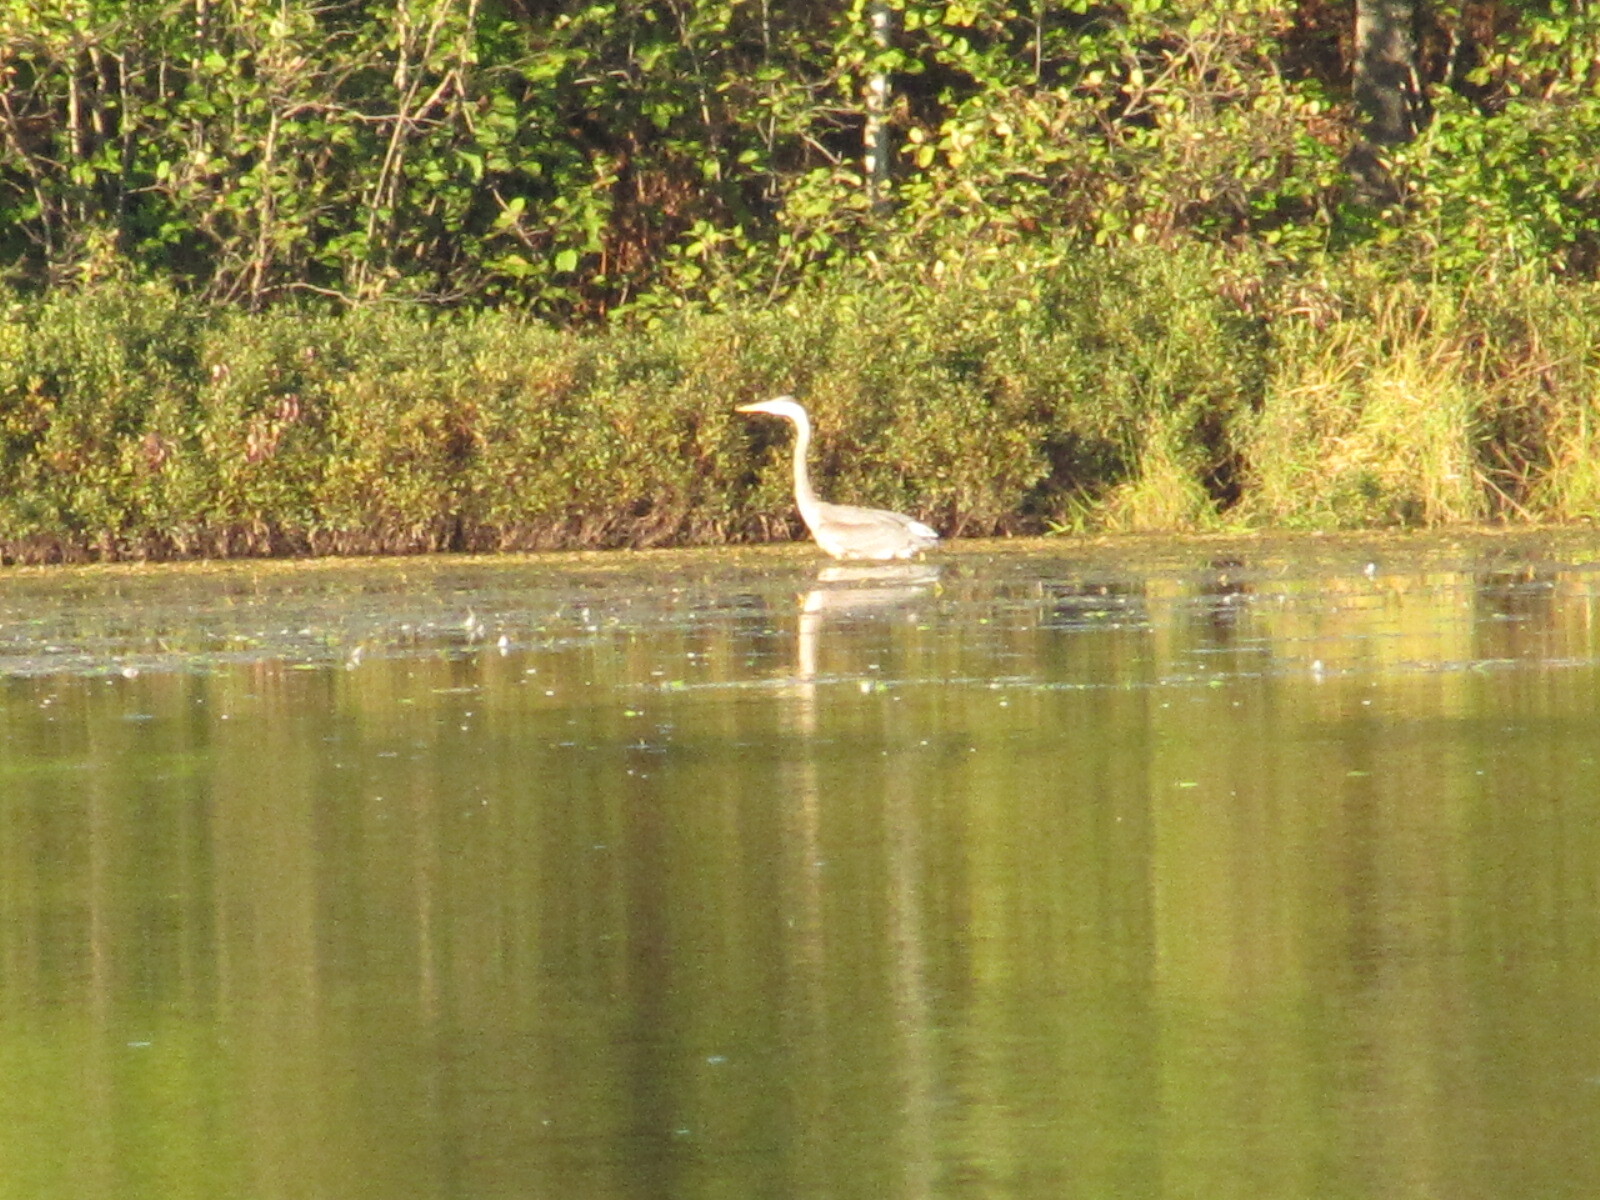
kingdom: Animalia
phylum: Chordata
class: Aves
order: Pelecaniformes
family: Ardeidae
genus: Ardea
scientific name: Ardea herodias
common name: Great blue heron
